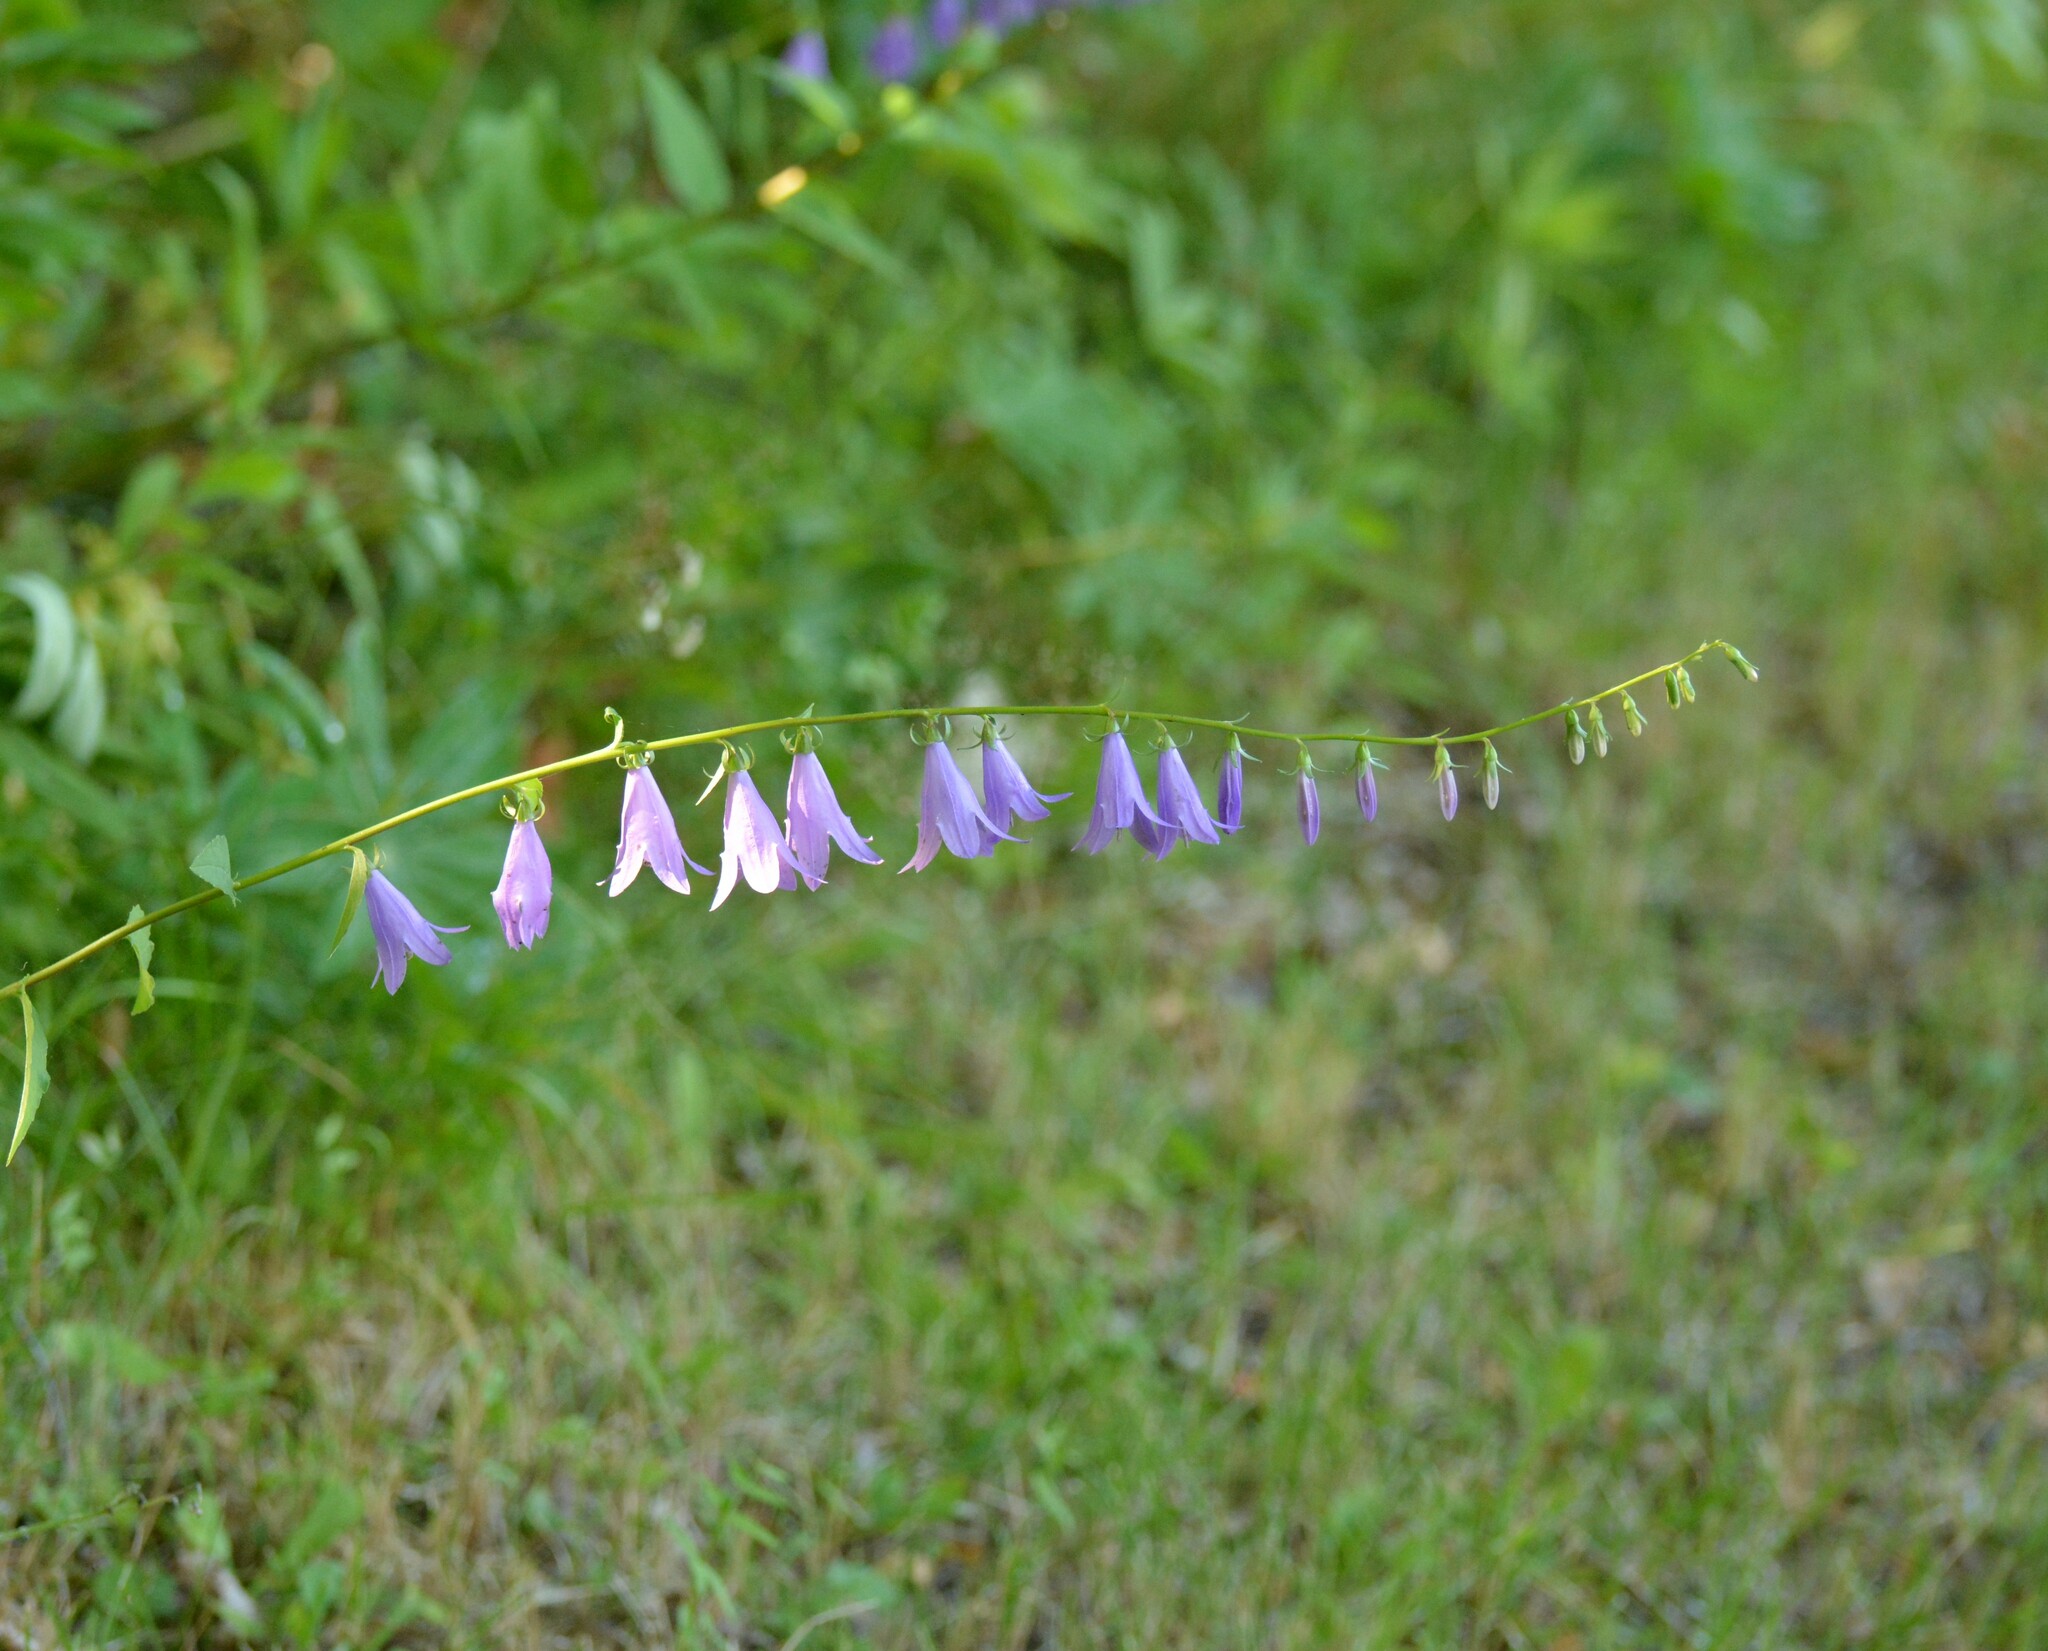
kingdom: Plantae
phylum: Tracheophyta
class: Magnoliopsida
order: Asterales
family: Campanulaceae
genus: Campanula
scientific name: Campanula rapunculoides
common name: Creeping bellflower
